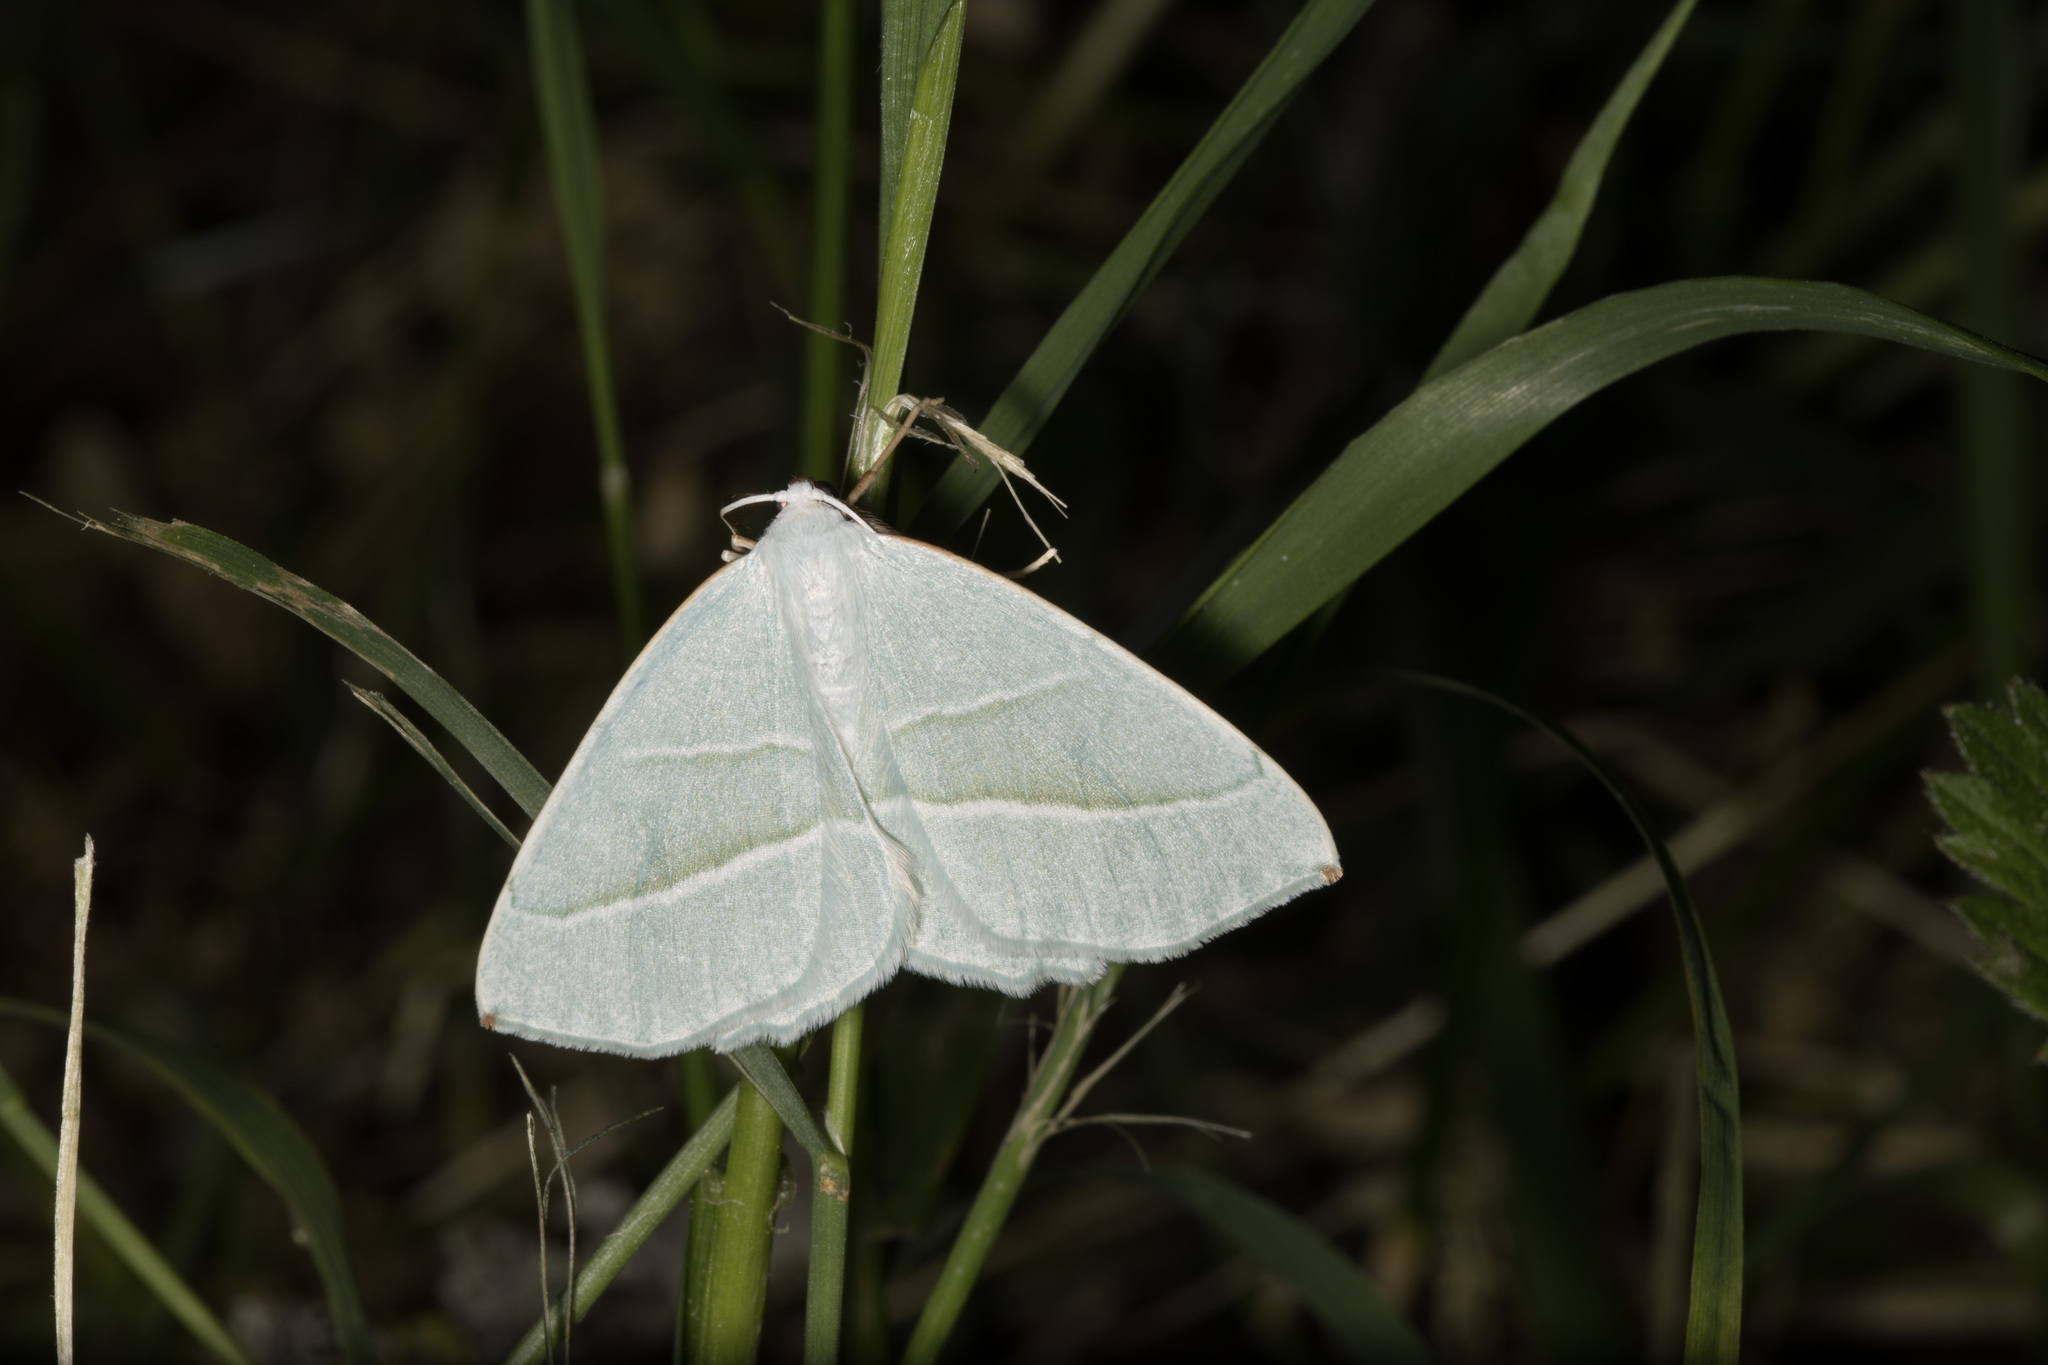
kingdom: Animalia
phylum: Arthropoda
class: Insecta
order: Lepidoptera
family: Geometridae
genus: Campaea
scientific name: Campaea margaritaria
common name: Light emerald
